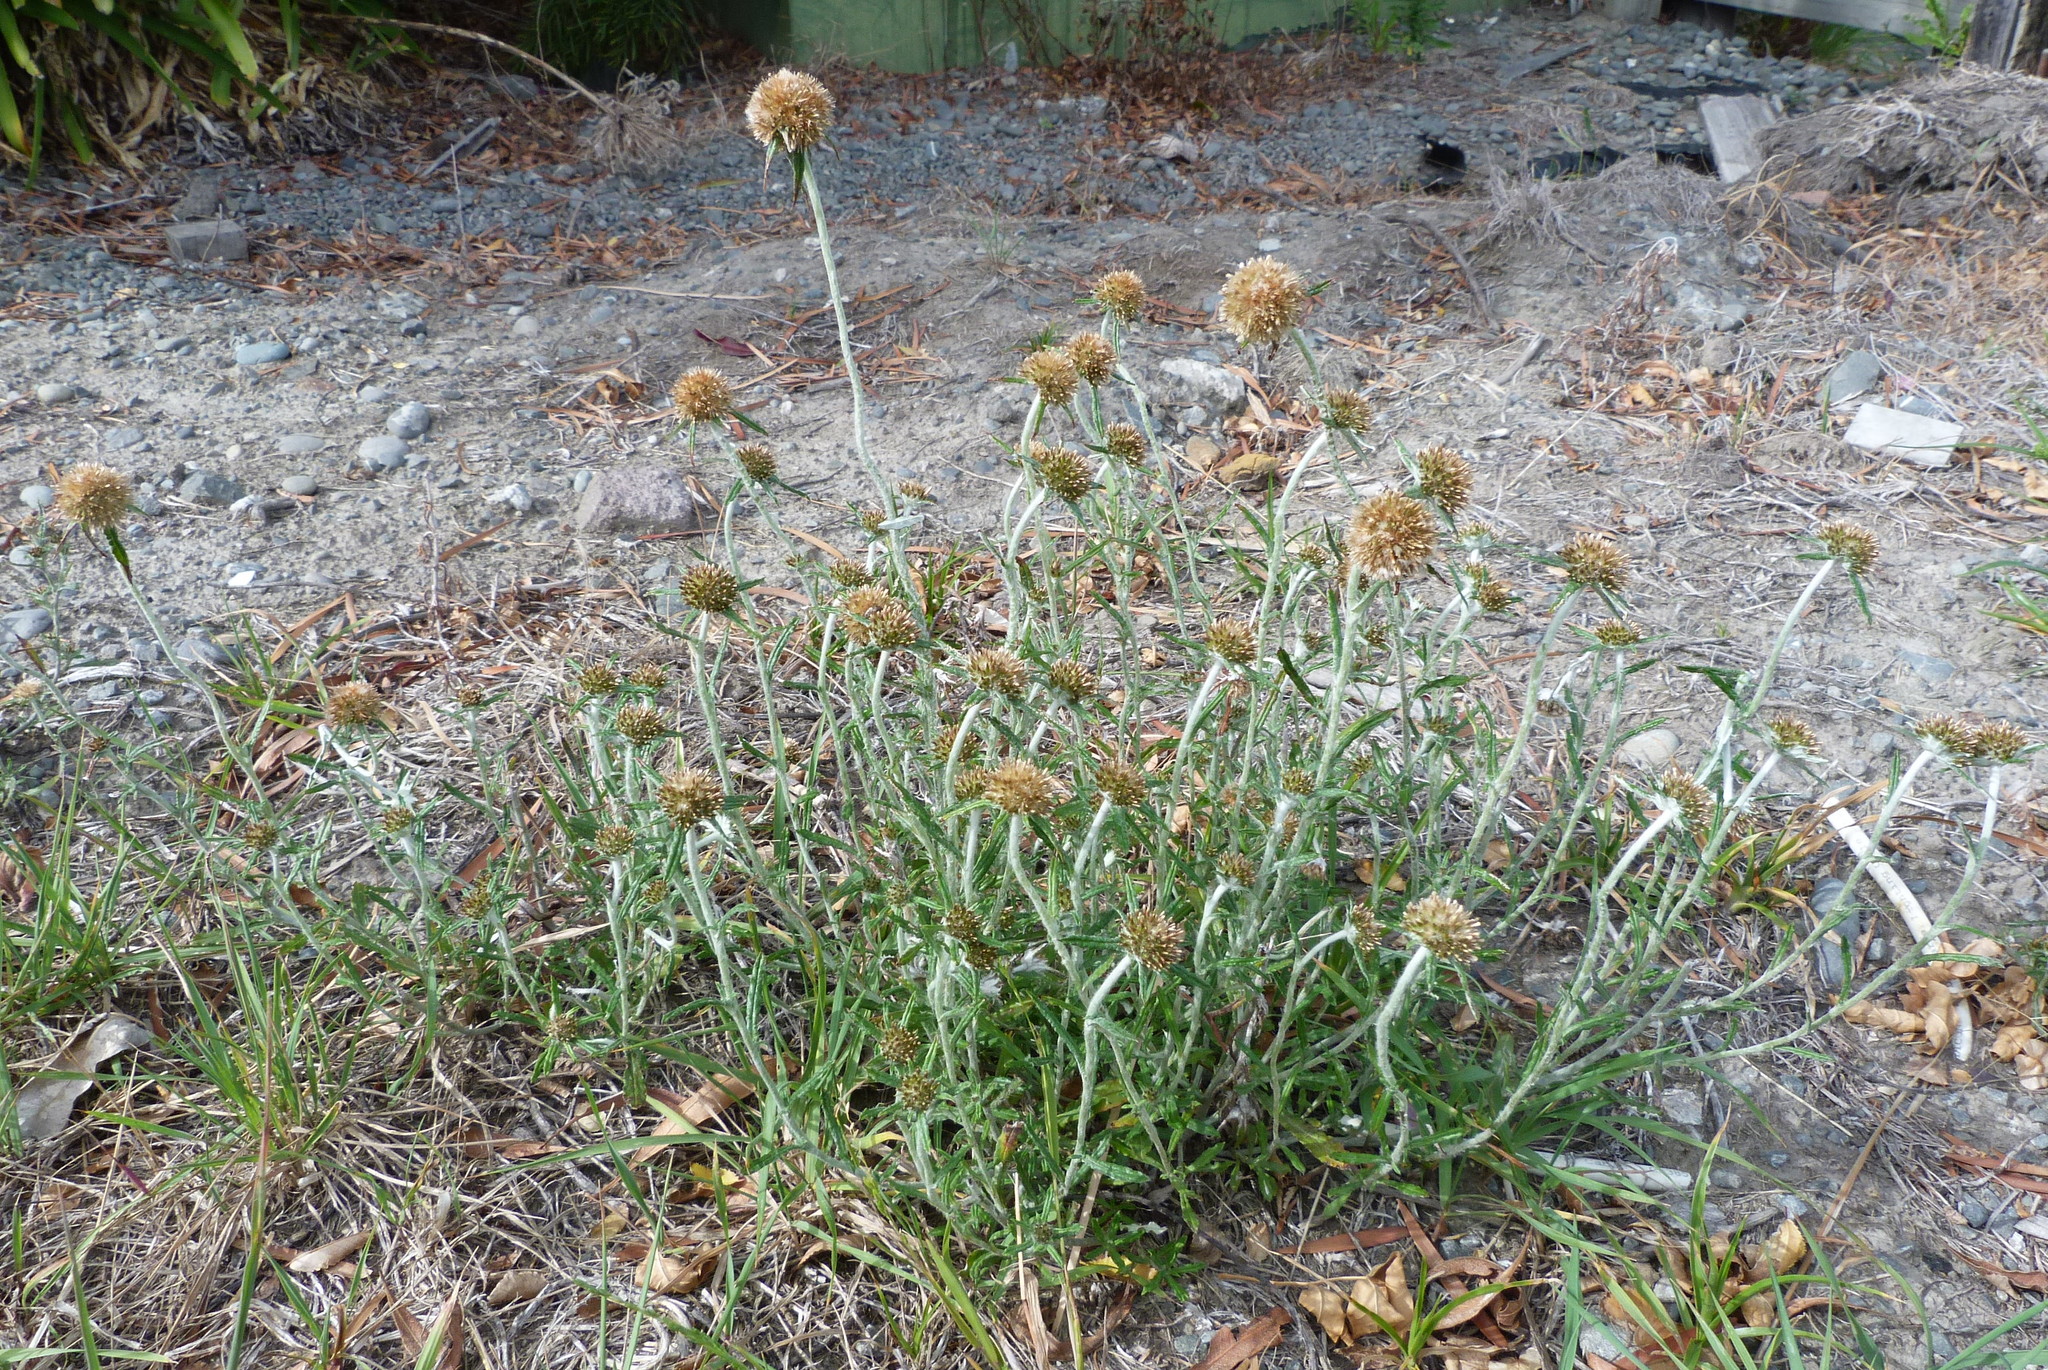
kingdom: Plantae
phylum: Tracheophyta
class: Magnoliopsida
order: Asterales
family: Asteraceae
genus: Euchiton
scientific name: Euchiton involucratus
